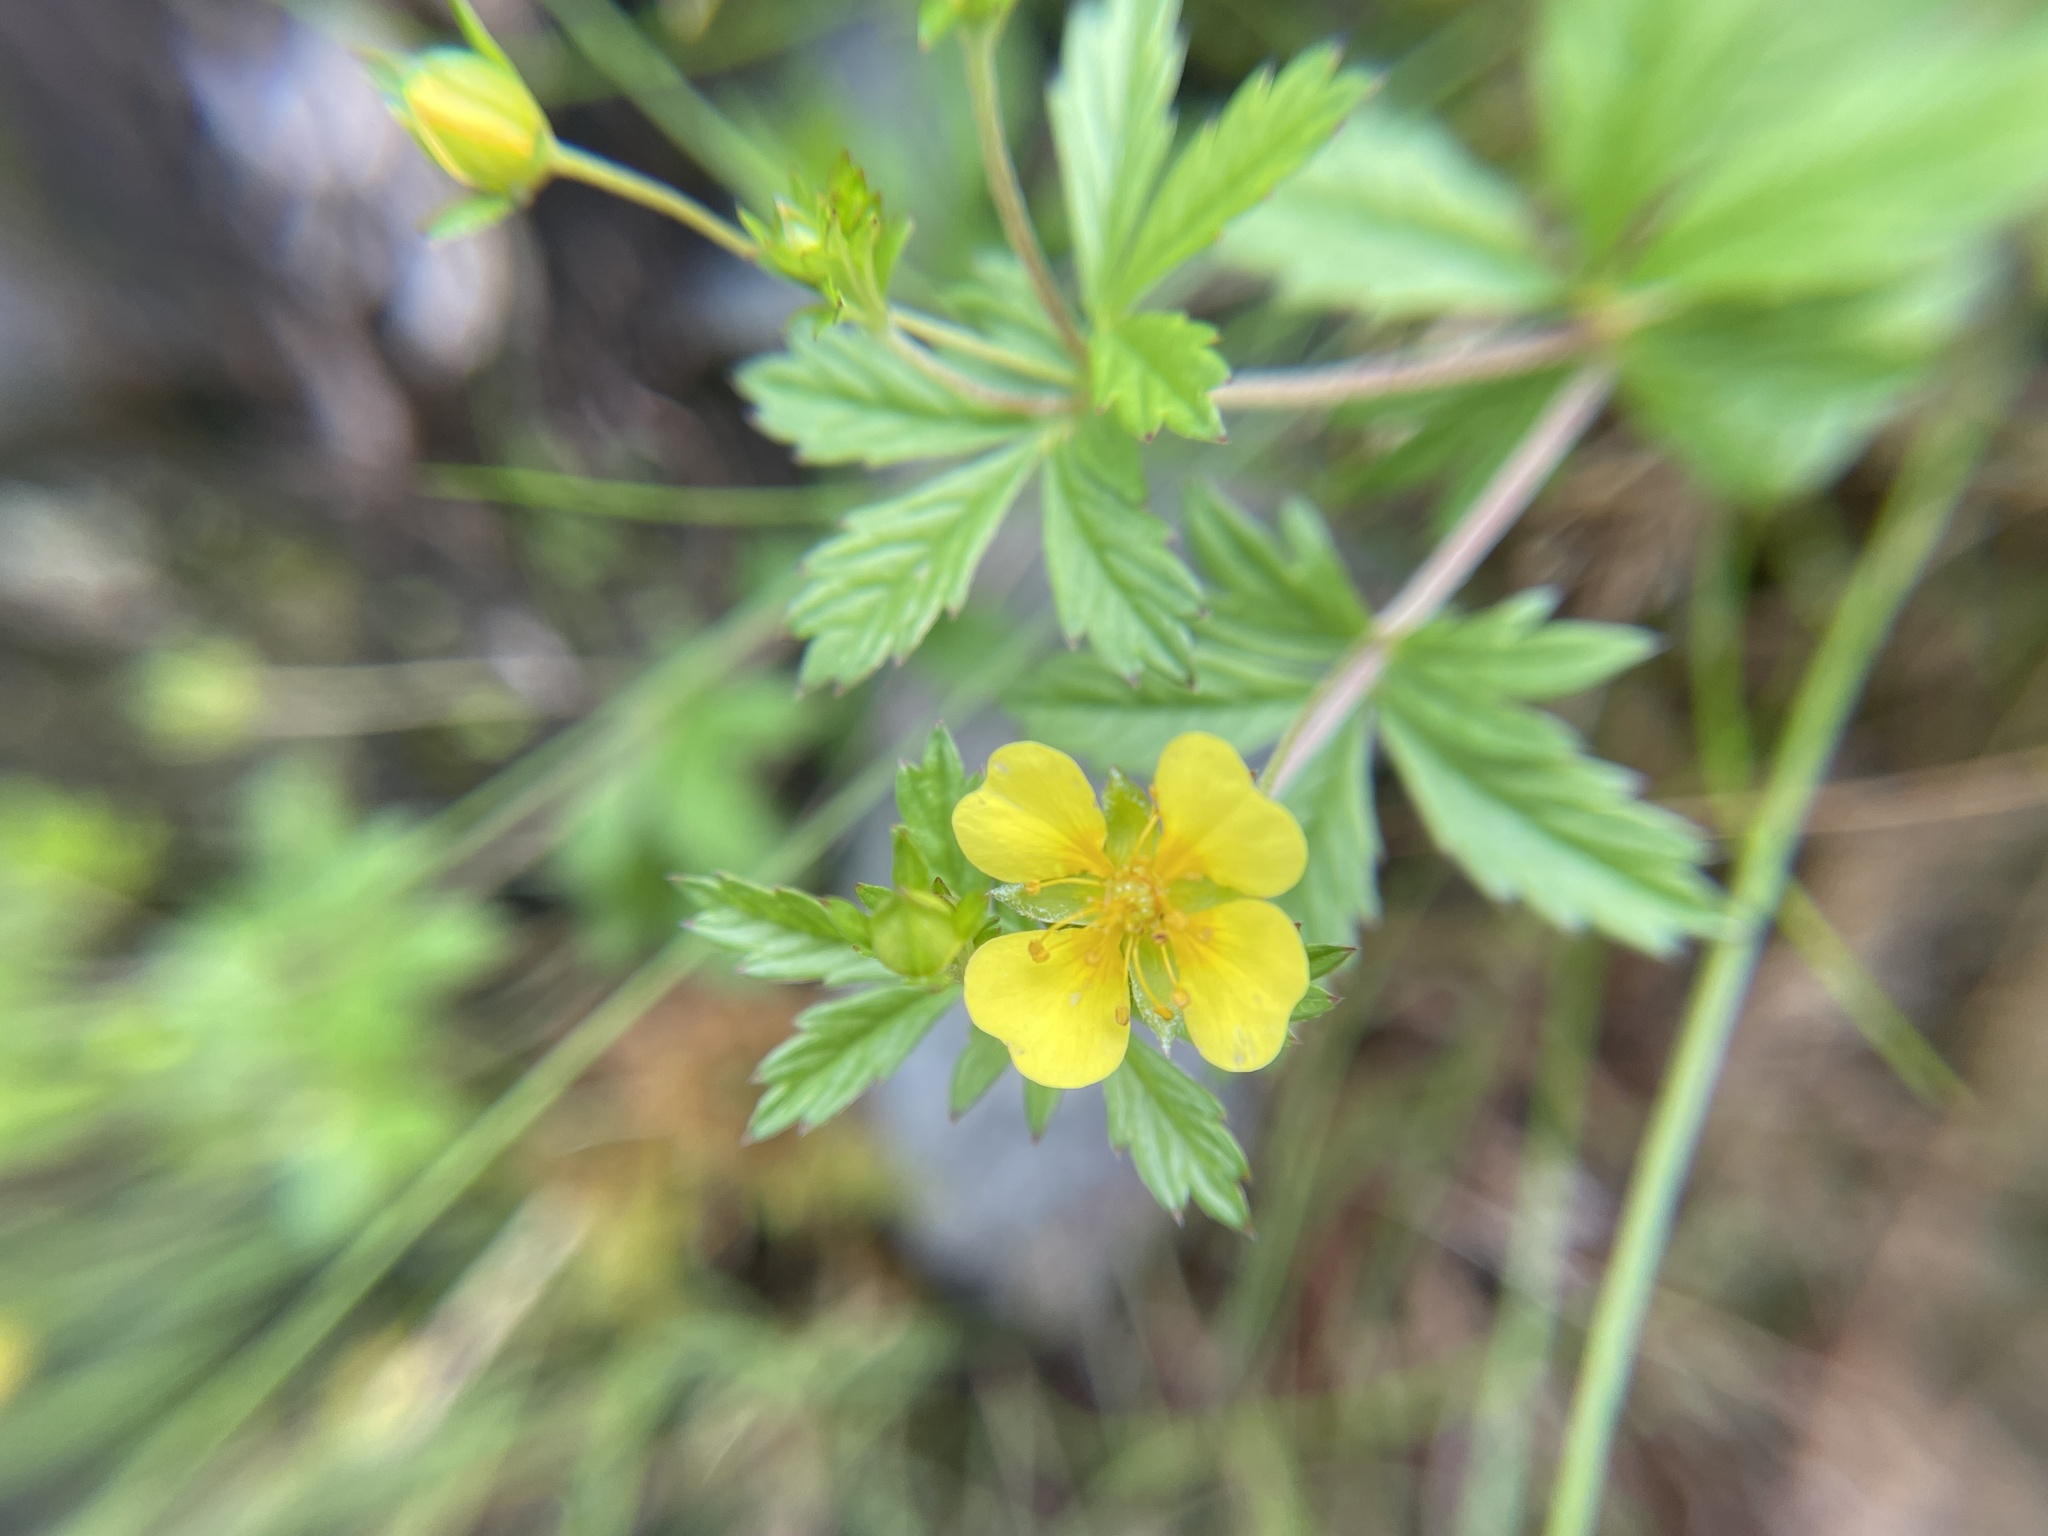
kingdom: Plantae
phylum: Tracheophyta
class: Magnoliopsida
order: Rosales
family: Rosaceae
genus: Potentilla
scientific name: Potentilla erecta
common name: Tormentil
